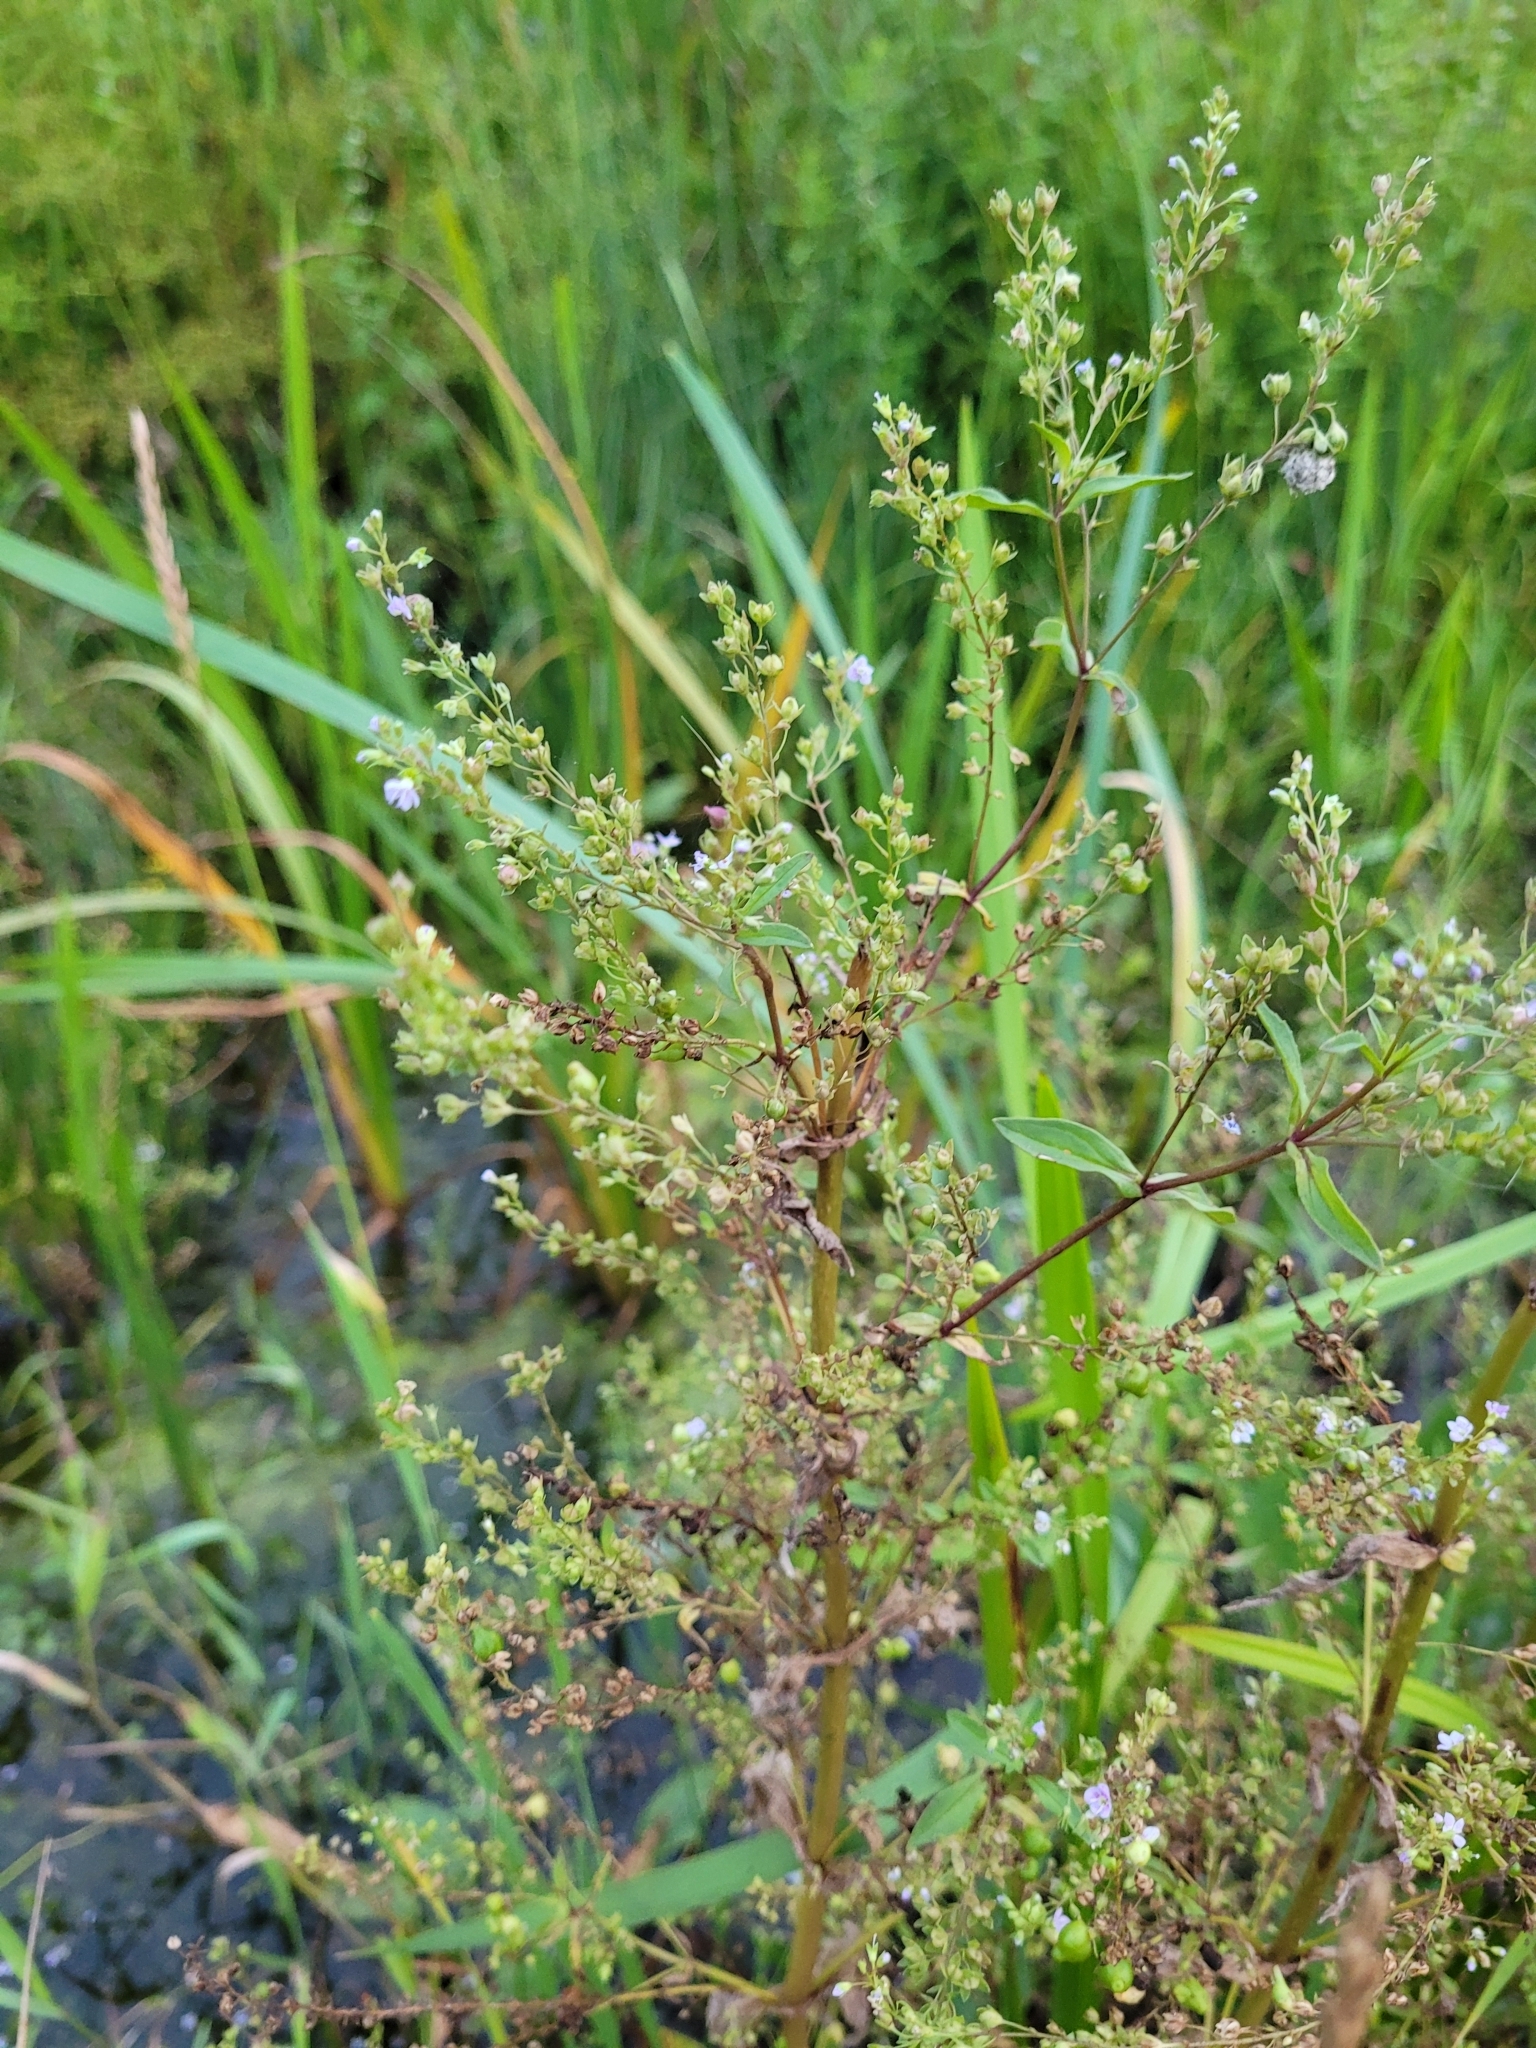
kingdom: Plantae
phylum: Tracheophyta
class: Magnoliopsida
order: Lamiales
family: Plantaginaceae
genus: Veronica
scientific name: Veronica anagallis-aquatica
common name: Water speedwell
